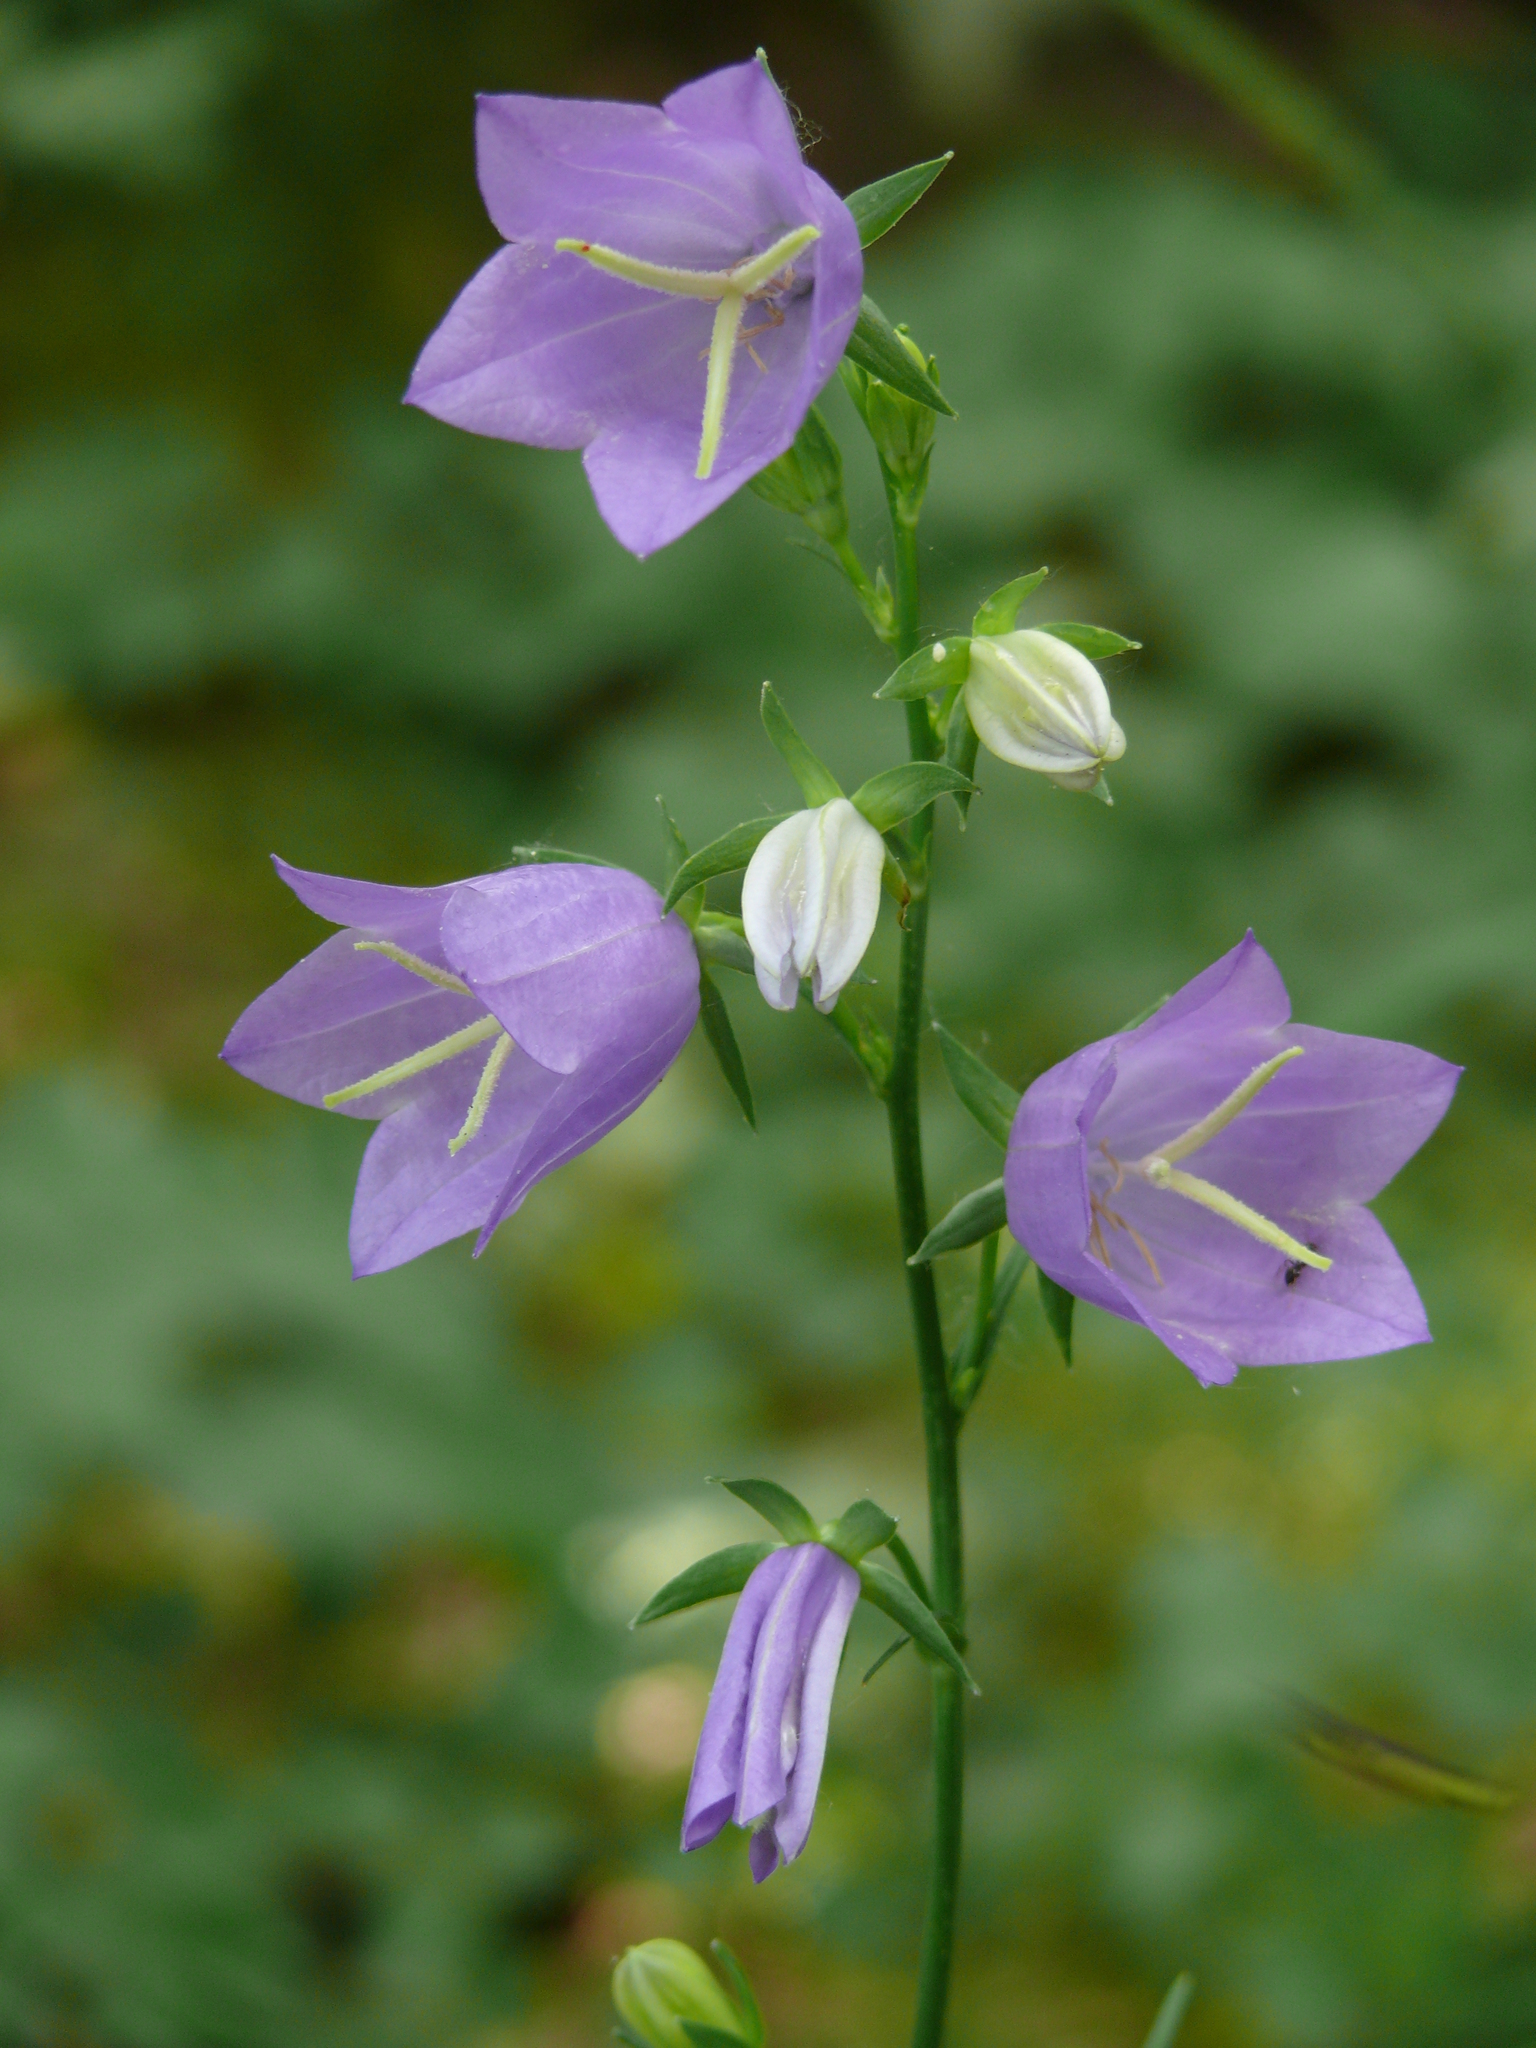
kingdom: Plantae
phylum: Tracheophyta
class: Magnoliopsida
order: Asterales
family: Campanulaceae
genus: Campanula
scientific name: Campanula persicifolia
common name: Peach-leaved bellflower
